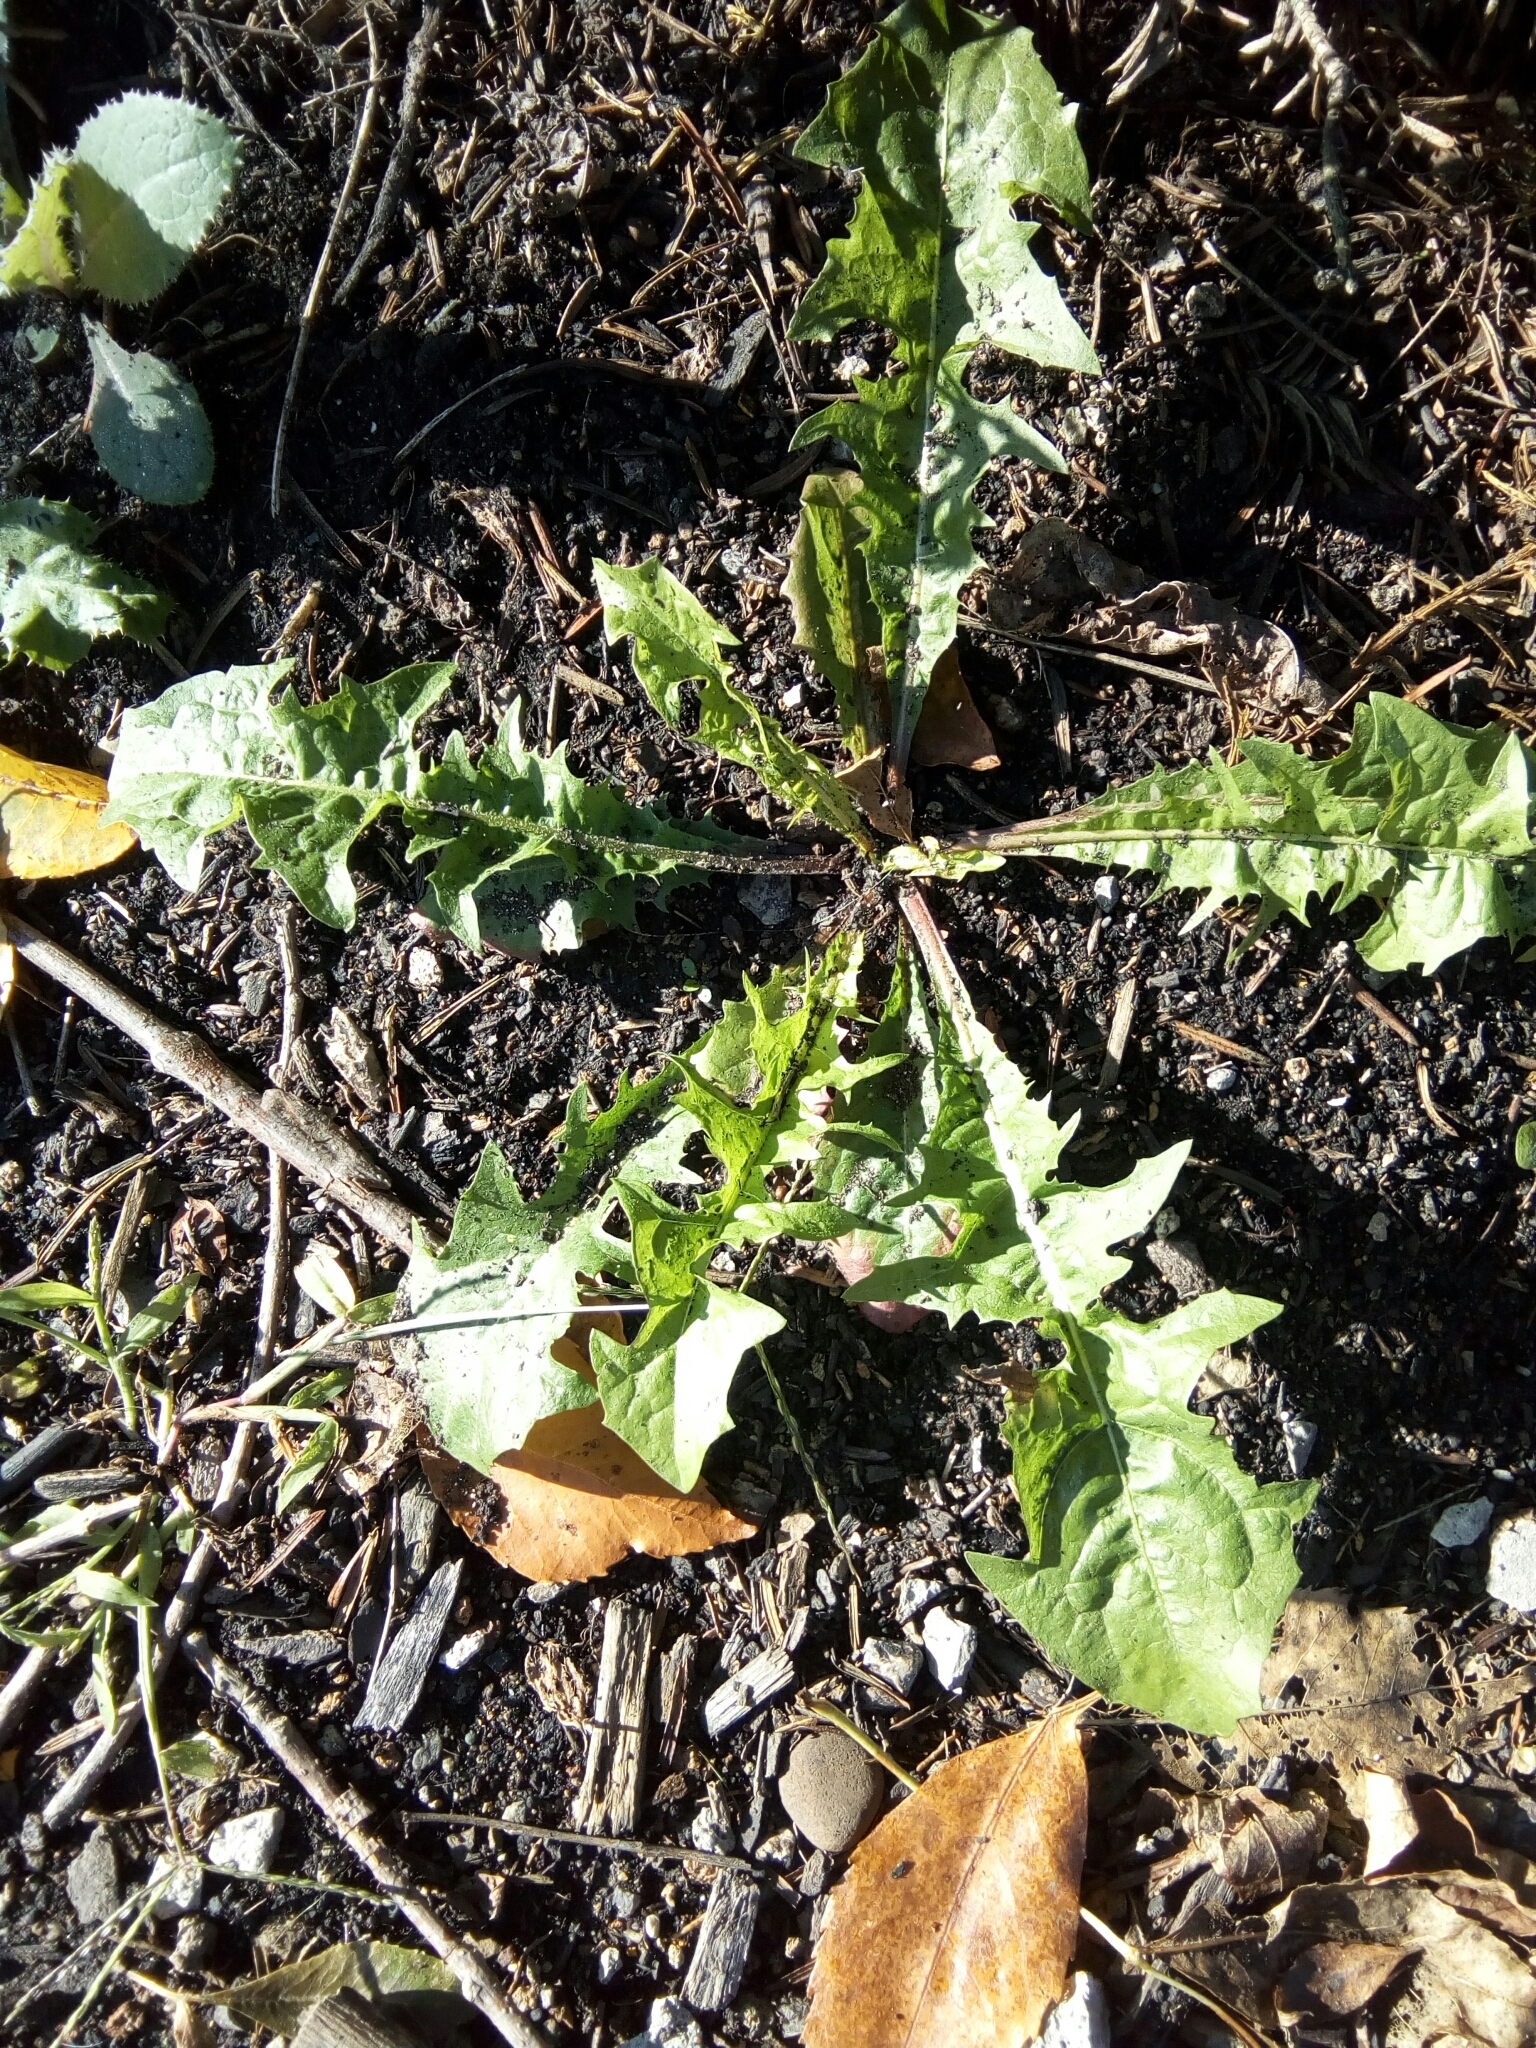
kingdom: Plantae
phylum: Tracheophyta
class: Magnoliopsida
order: Asterales
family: Asteraceae
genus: Taraxacum
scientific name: Taraxacum officinale
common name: Common dandelion
